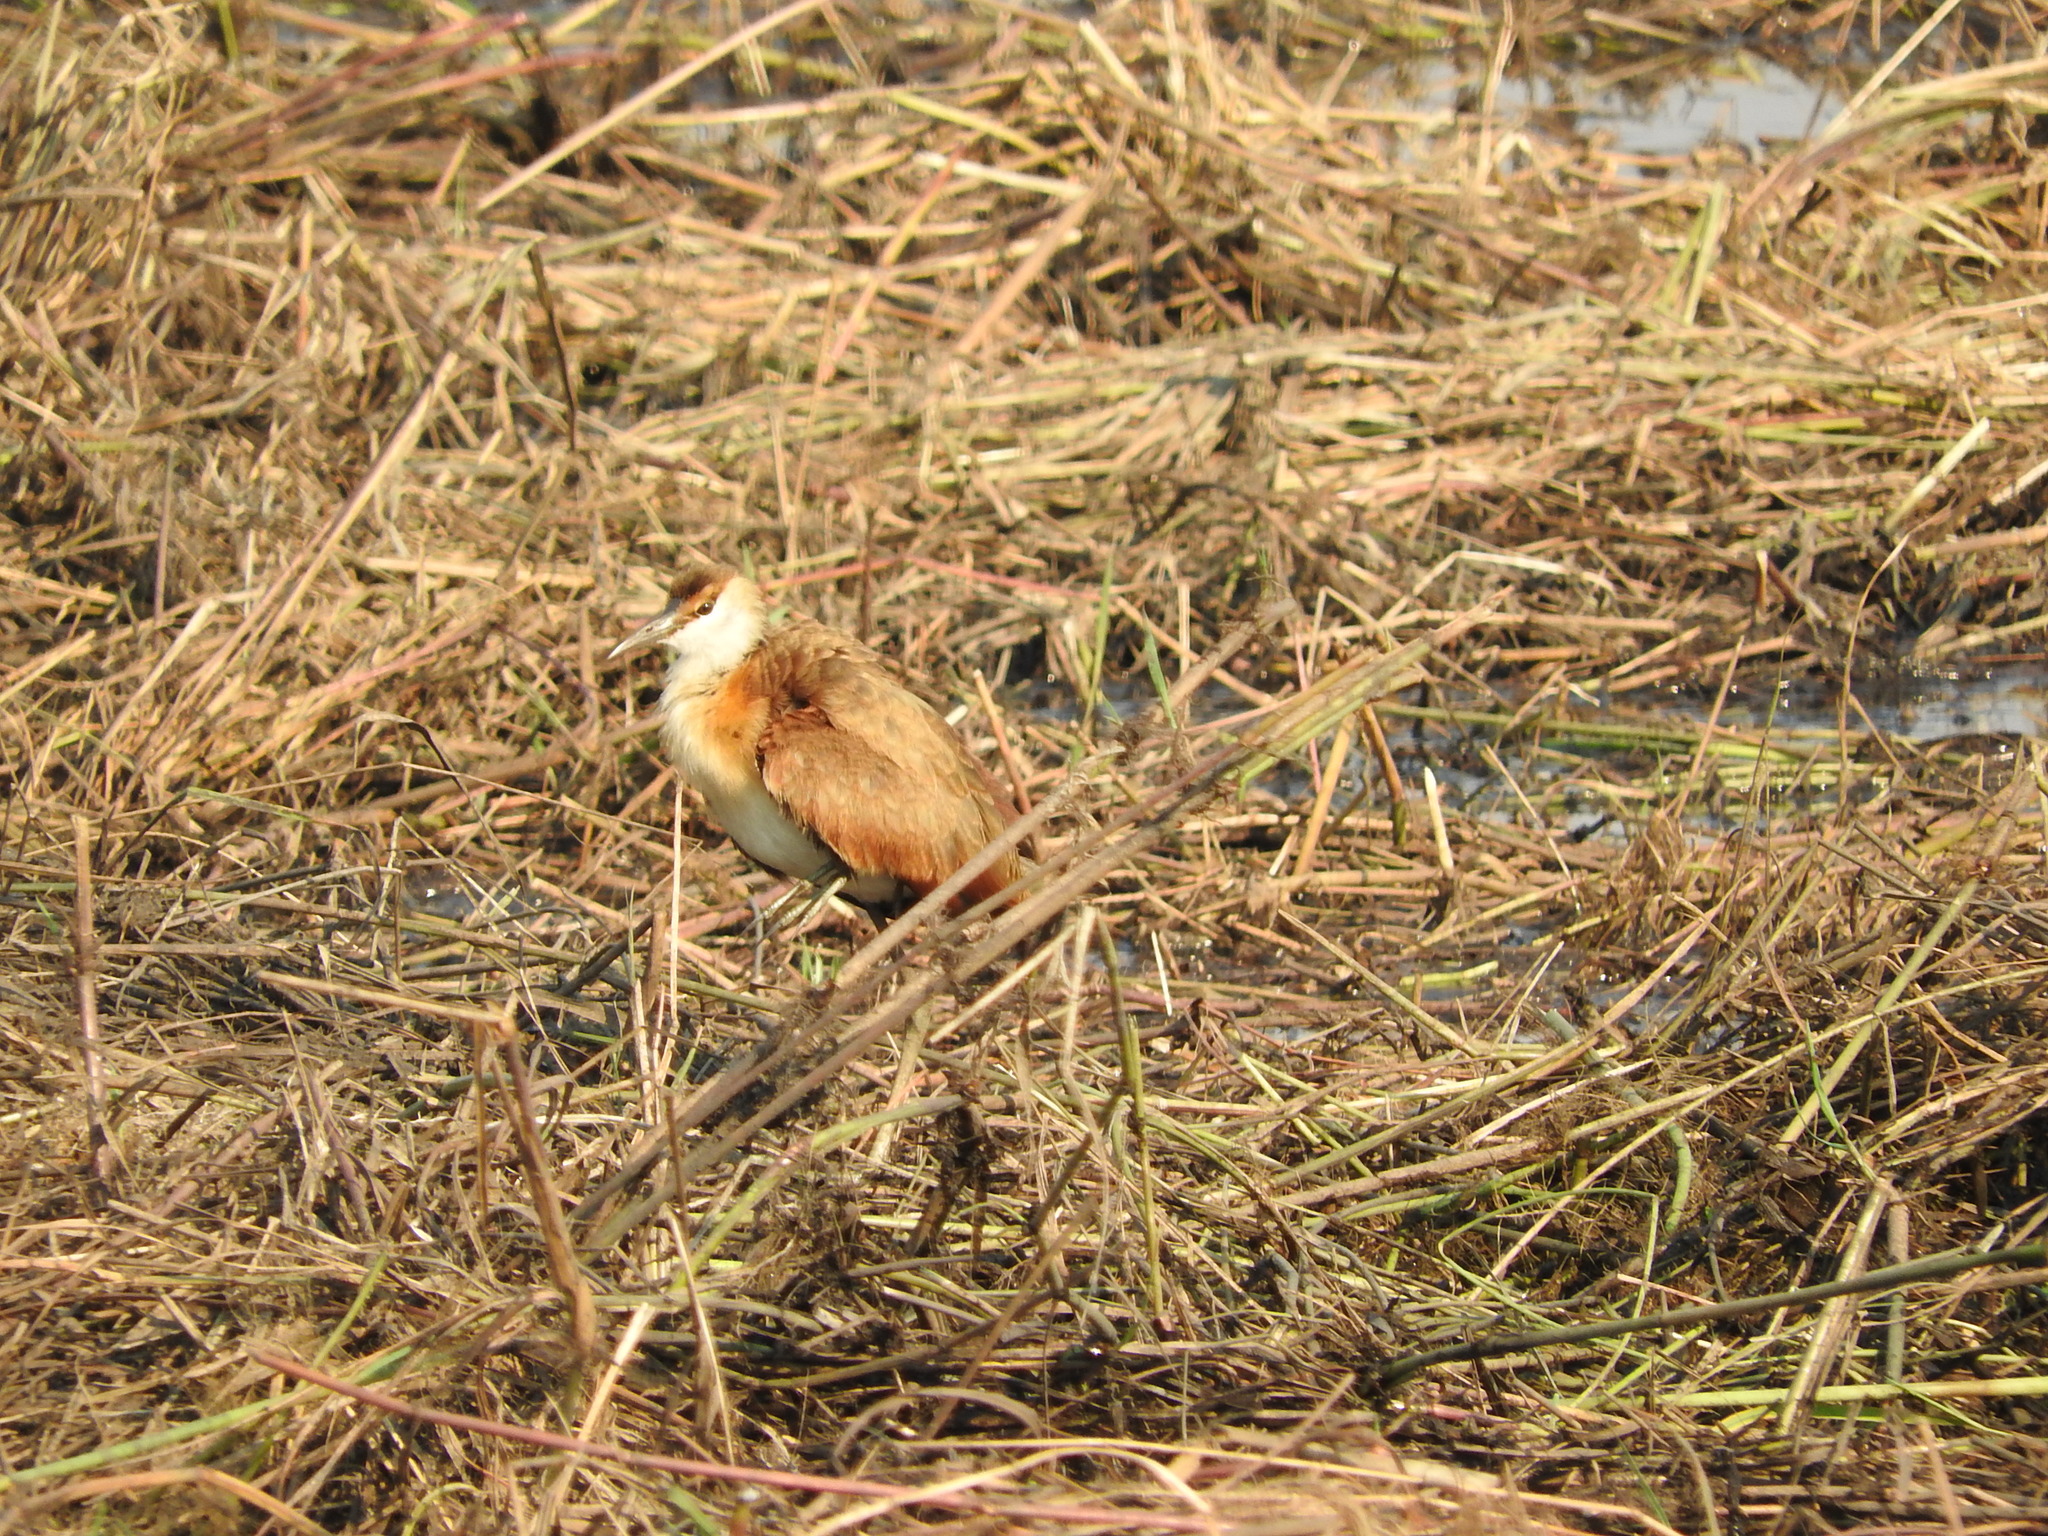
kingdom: Animalia
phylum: Chordata
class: Aves
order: Charadriiformes
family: Jacanidae
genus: Actophilornis
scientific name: Actophilornis africanus
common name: African jacana
